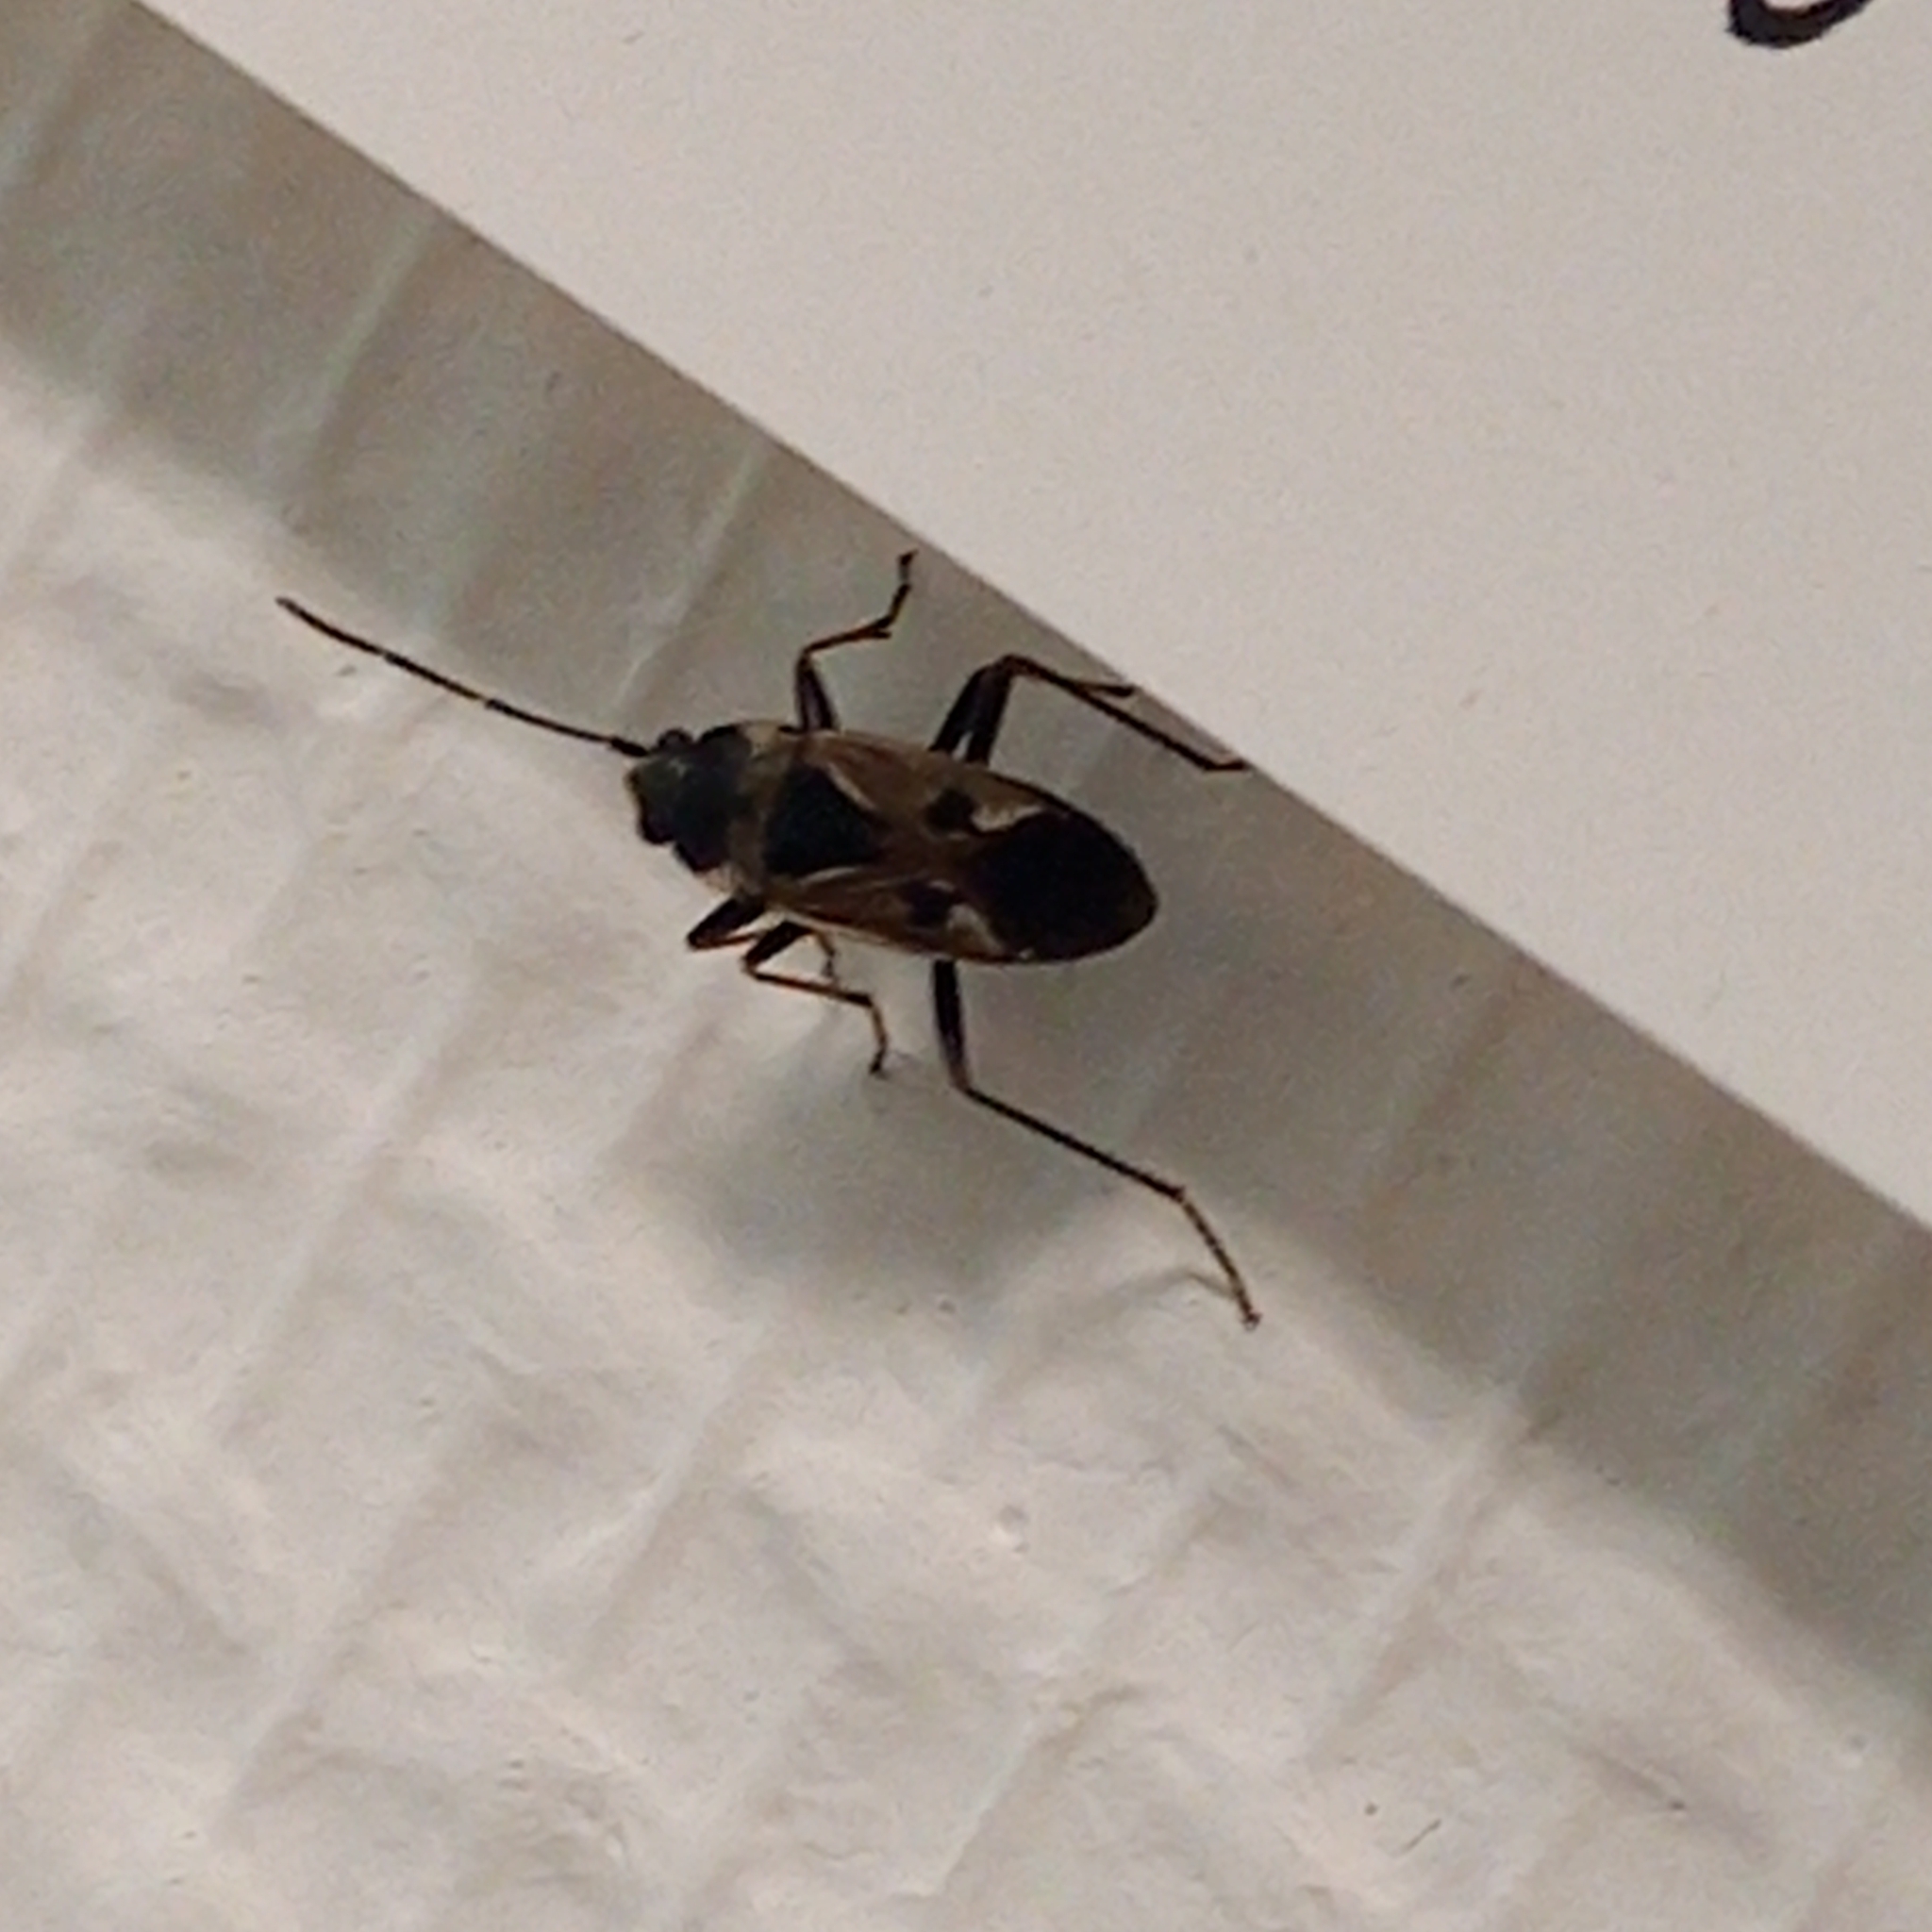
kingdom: Animalia
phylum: Arthropoda
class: Insecta
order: Hemiptera
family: Rhyparochromidae
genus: Rhyparochromus
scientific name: Rhyparochromus vulgaris
